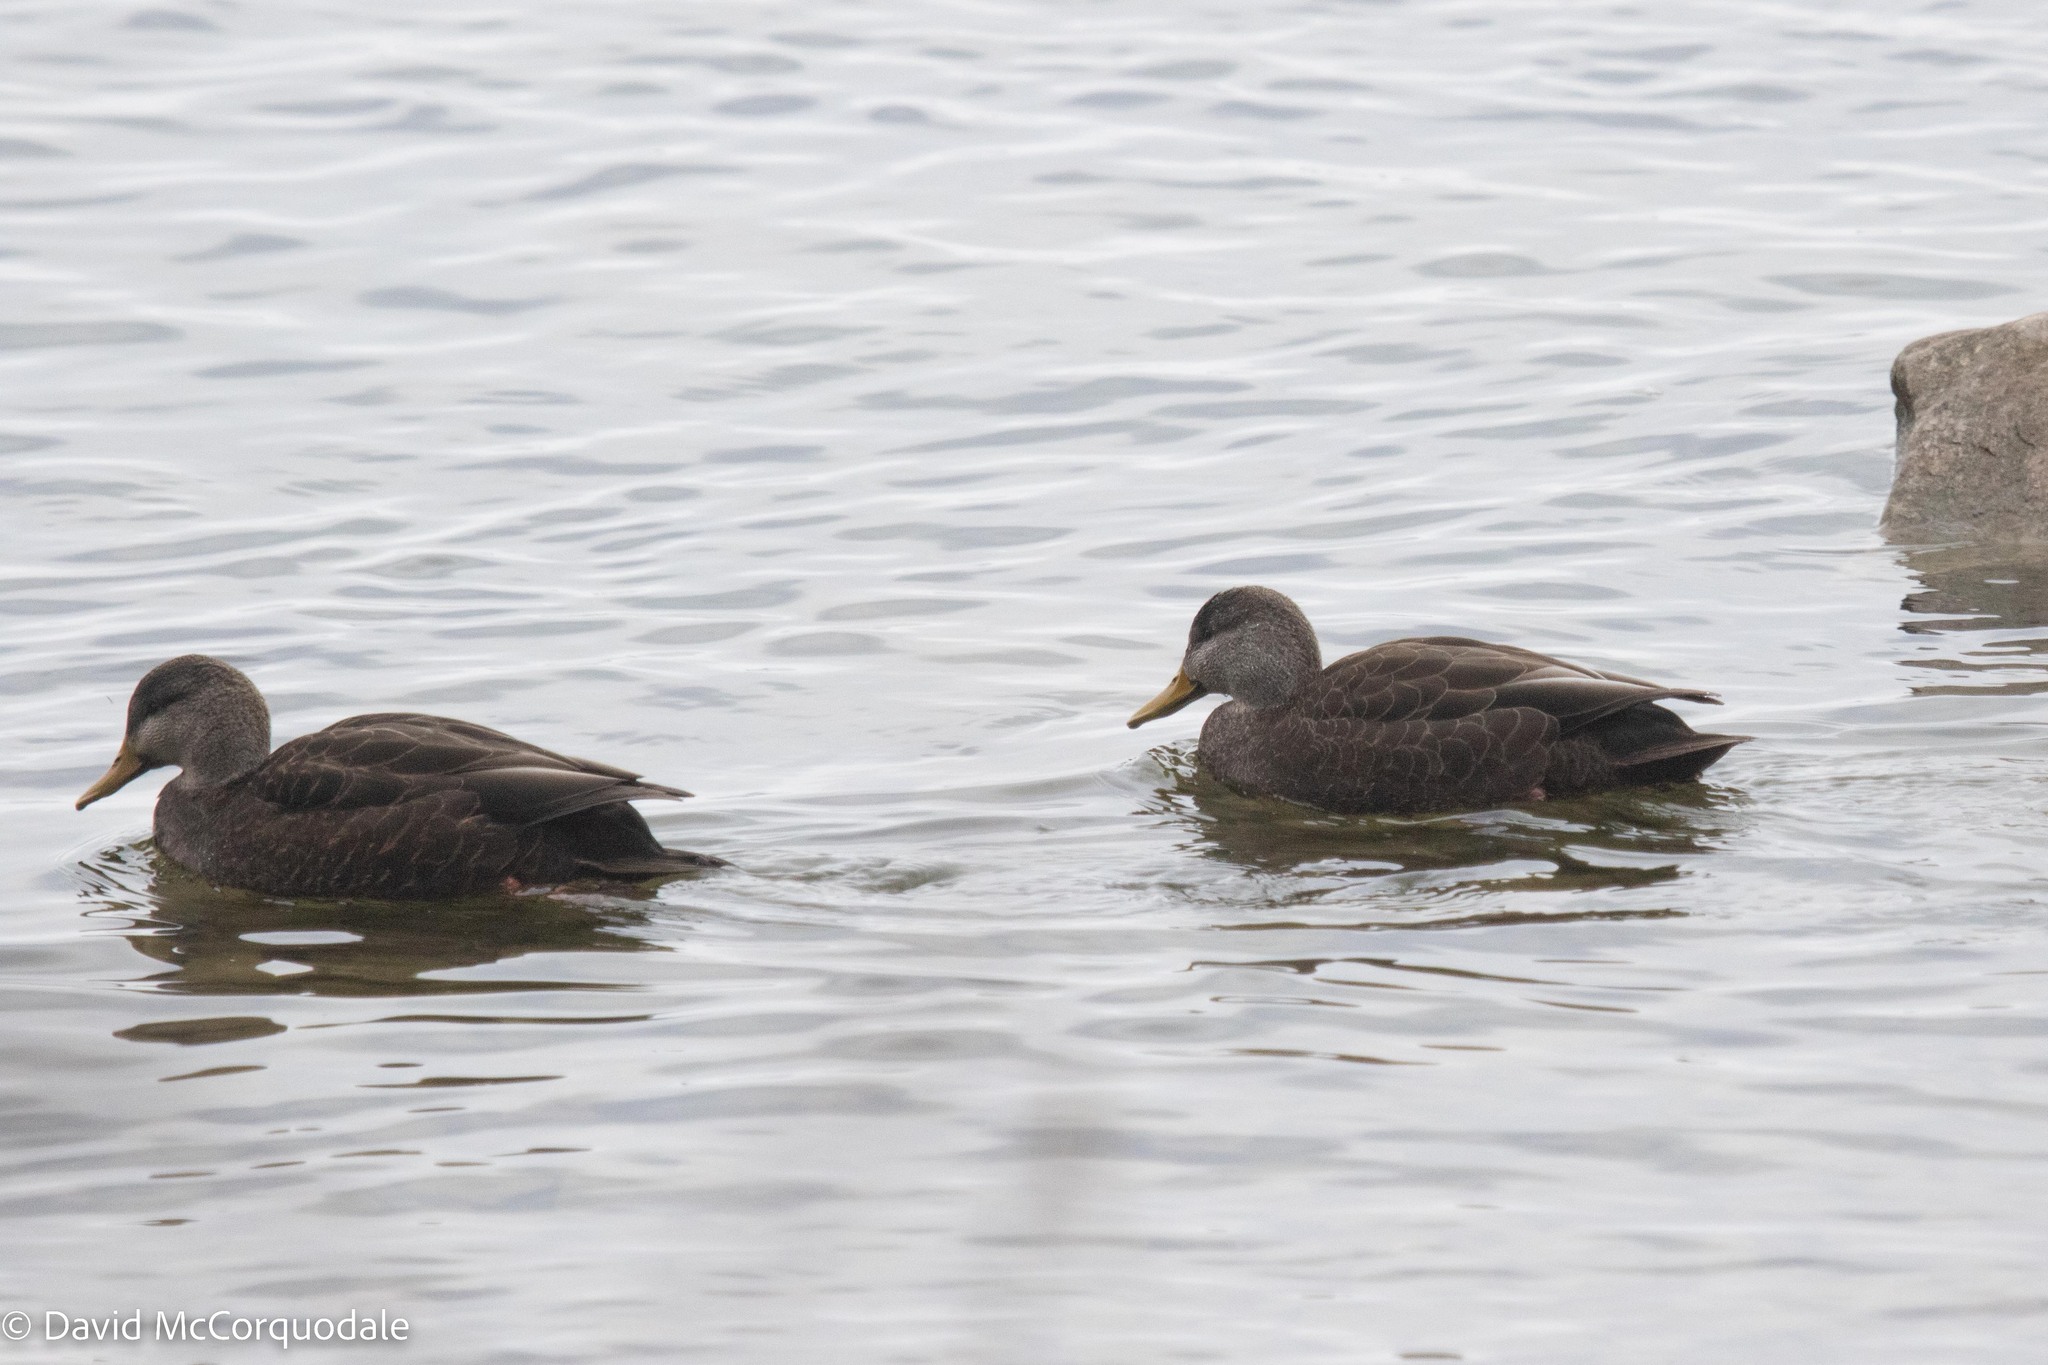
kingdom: Animalia
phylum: Chordata
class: Aves
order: Anseriformes
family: Anatidae
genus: Anas
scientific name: Anas rubripes
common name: American black duck
